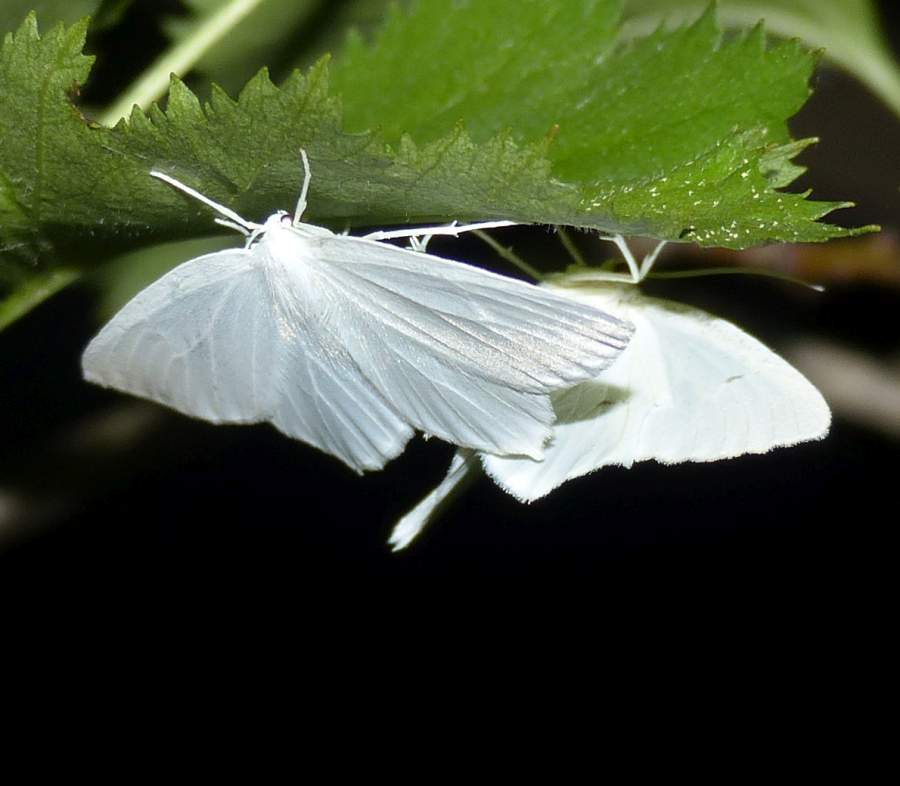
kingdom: Animalia
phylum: Arthropoda
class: Insecta
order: Lepidoptera
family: Geometridae
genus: Ennomos
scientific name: Ennomos subsignaria
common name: Elm spanworm
